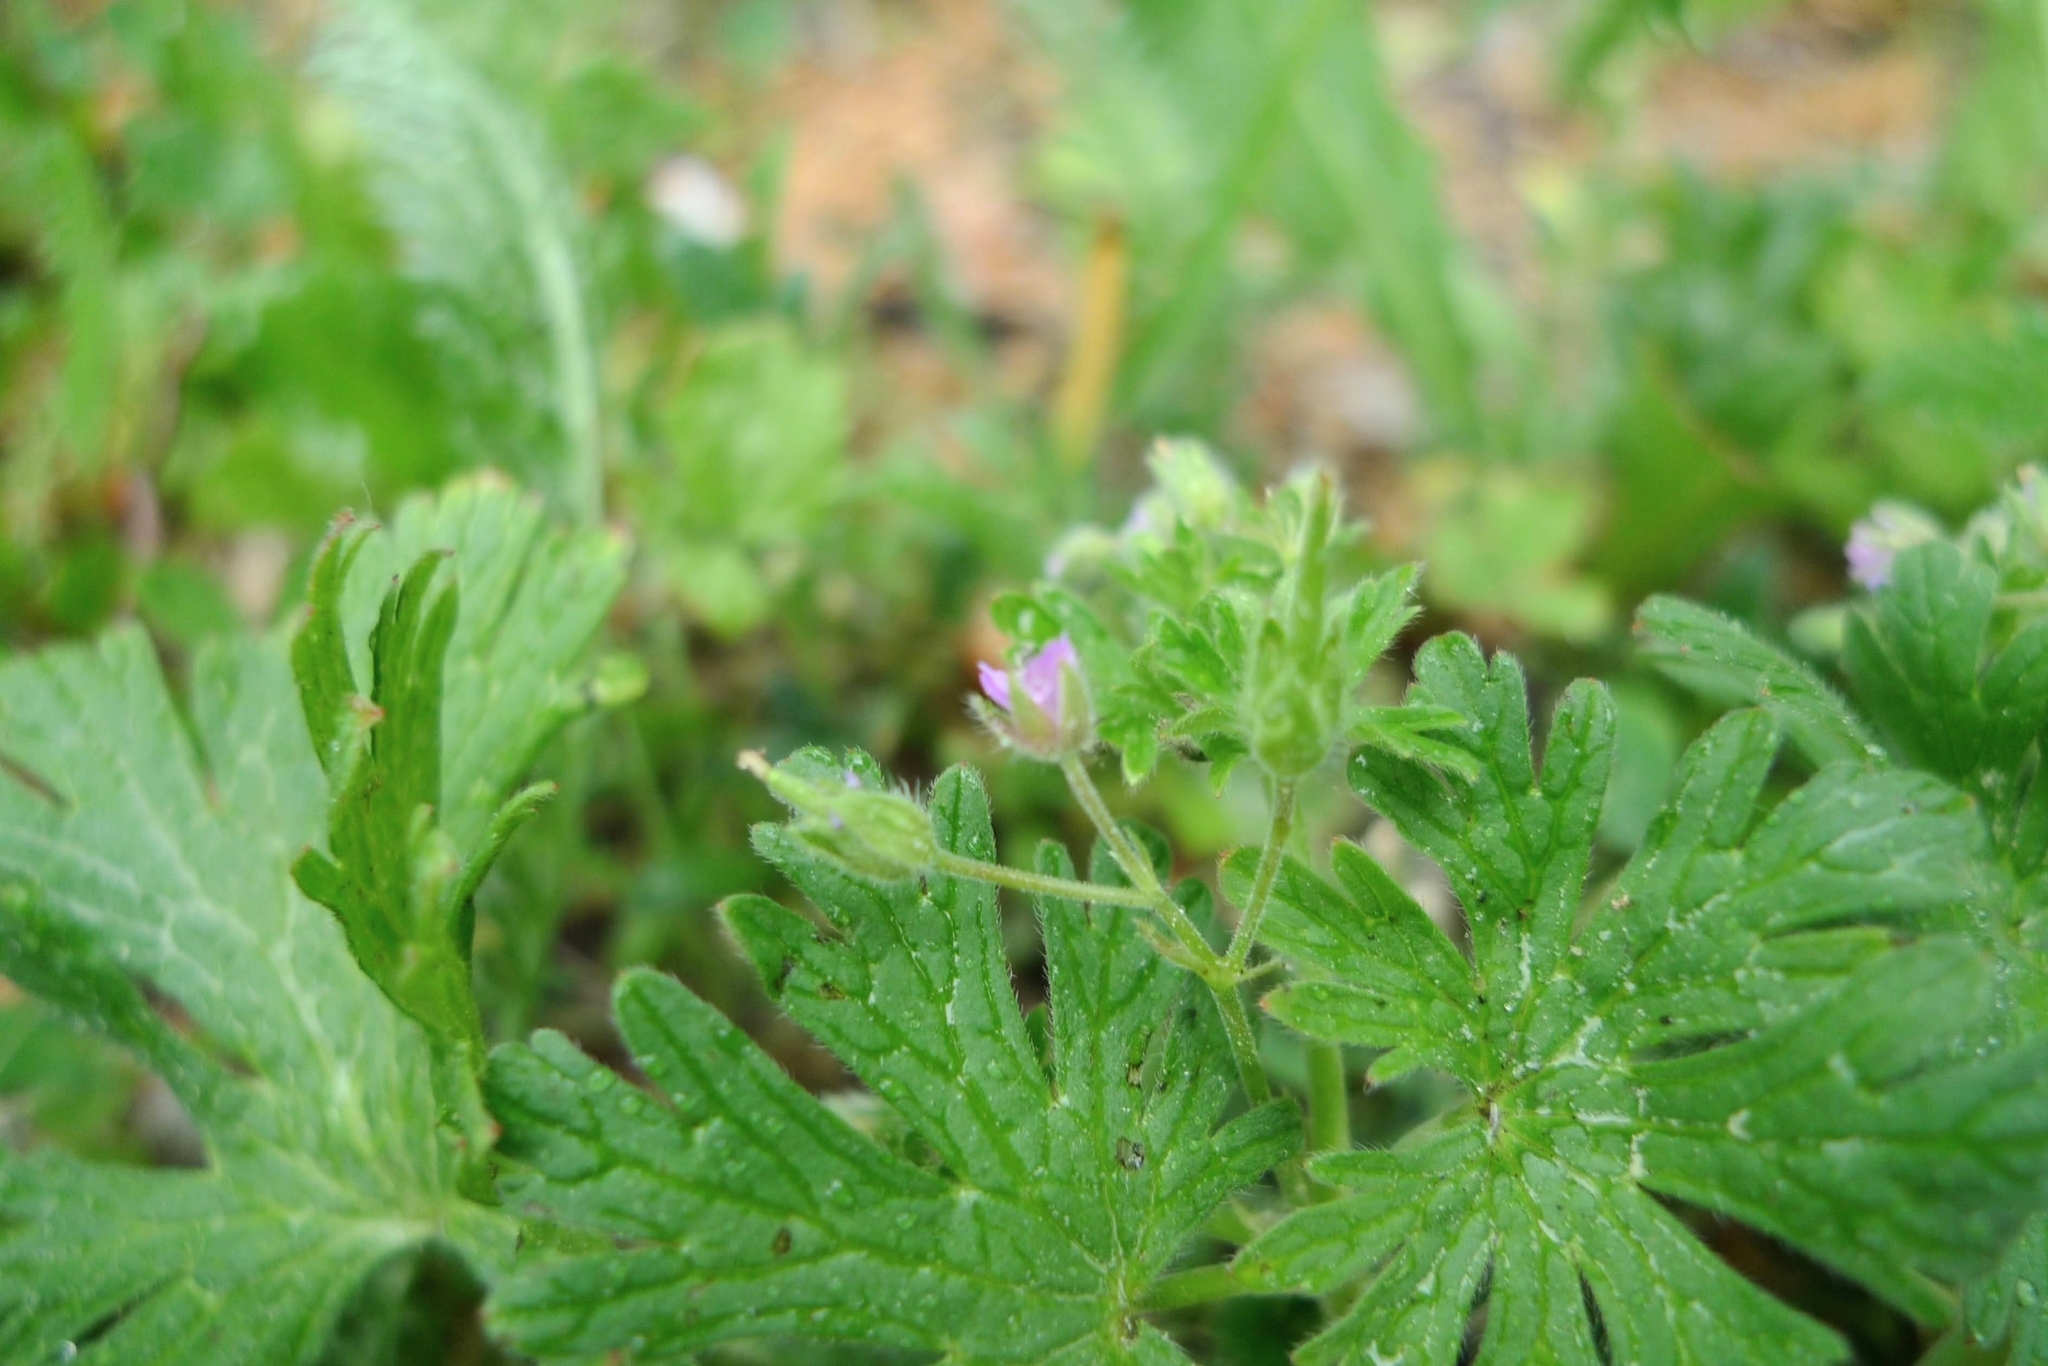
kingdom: Plantae
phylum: Tracheophyta
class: Magnoliopsida
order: Geraniales
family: Geraniaceae
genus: Geranium
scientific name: Geranium pusillum
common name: Small geranium
